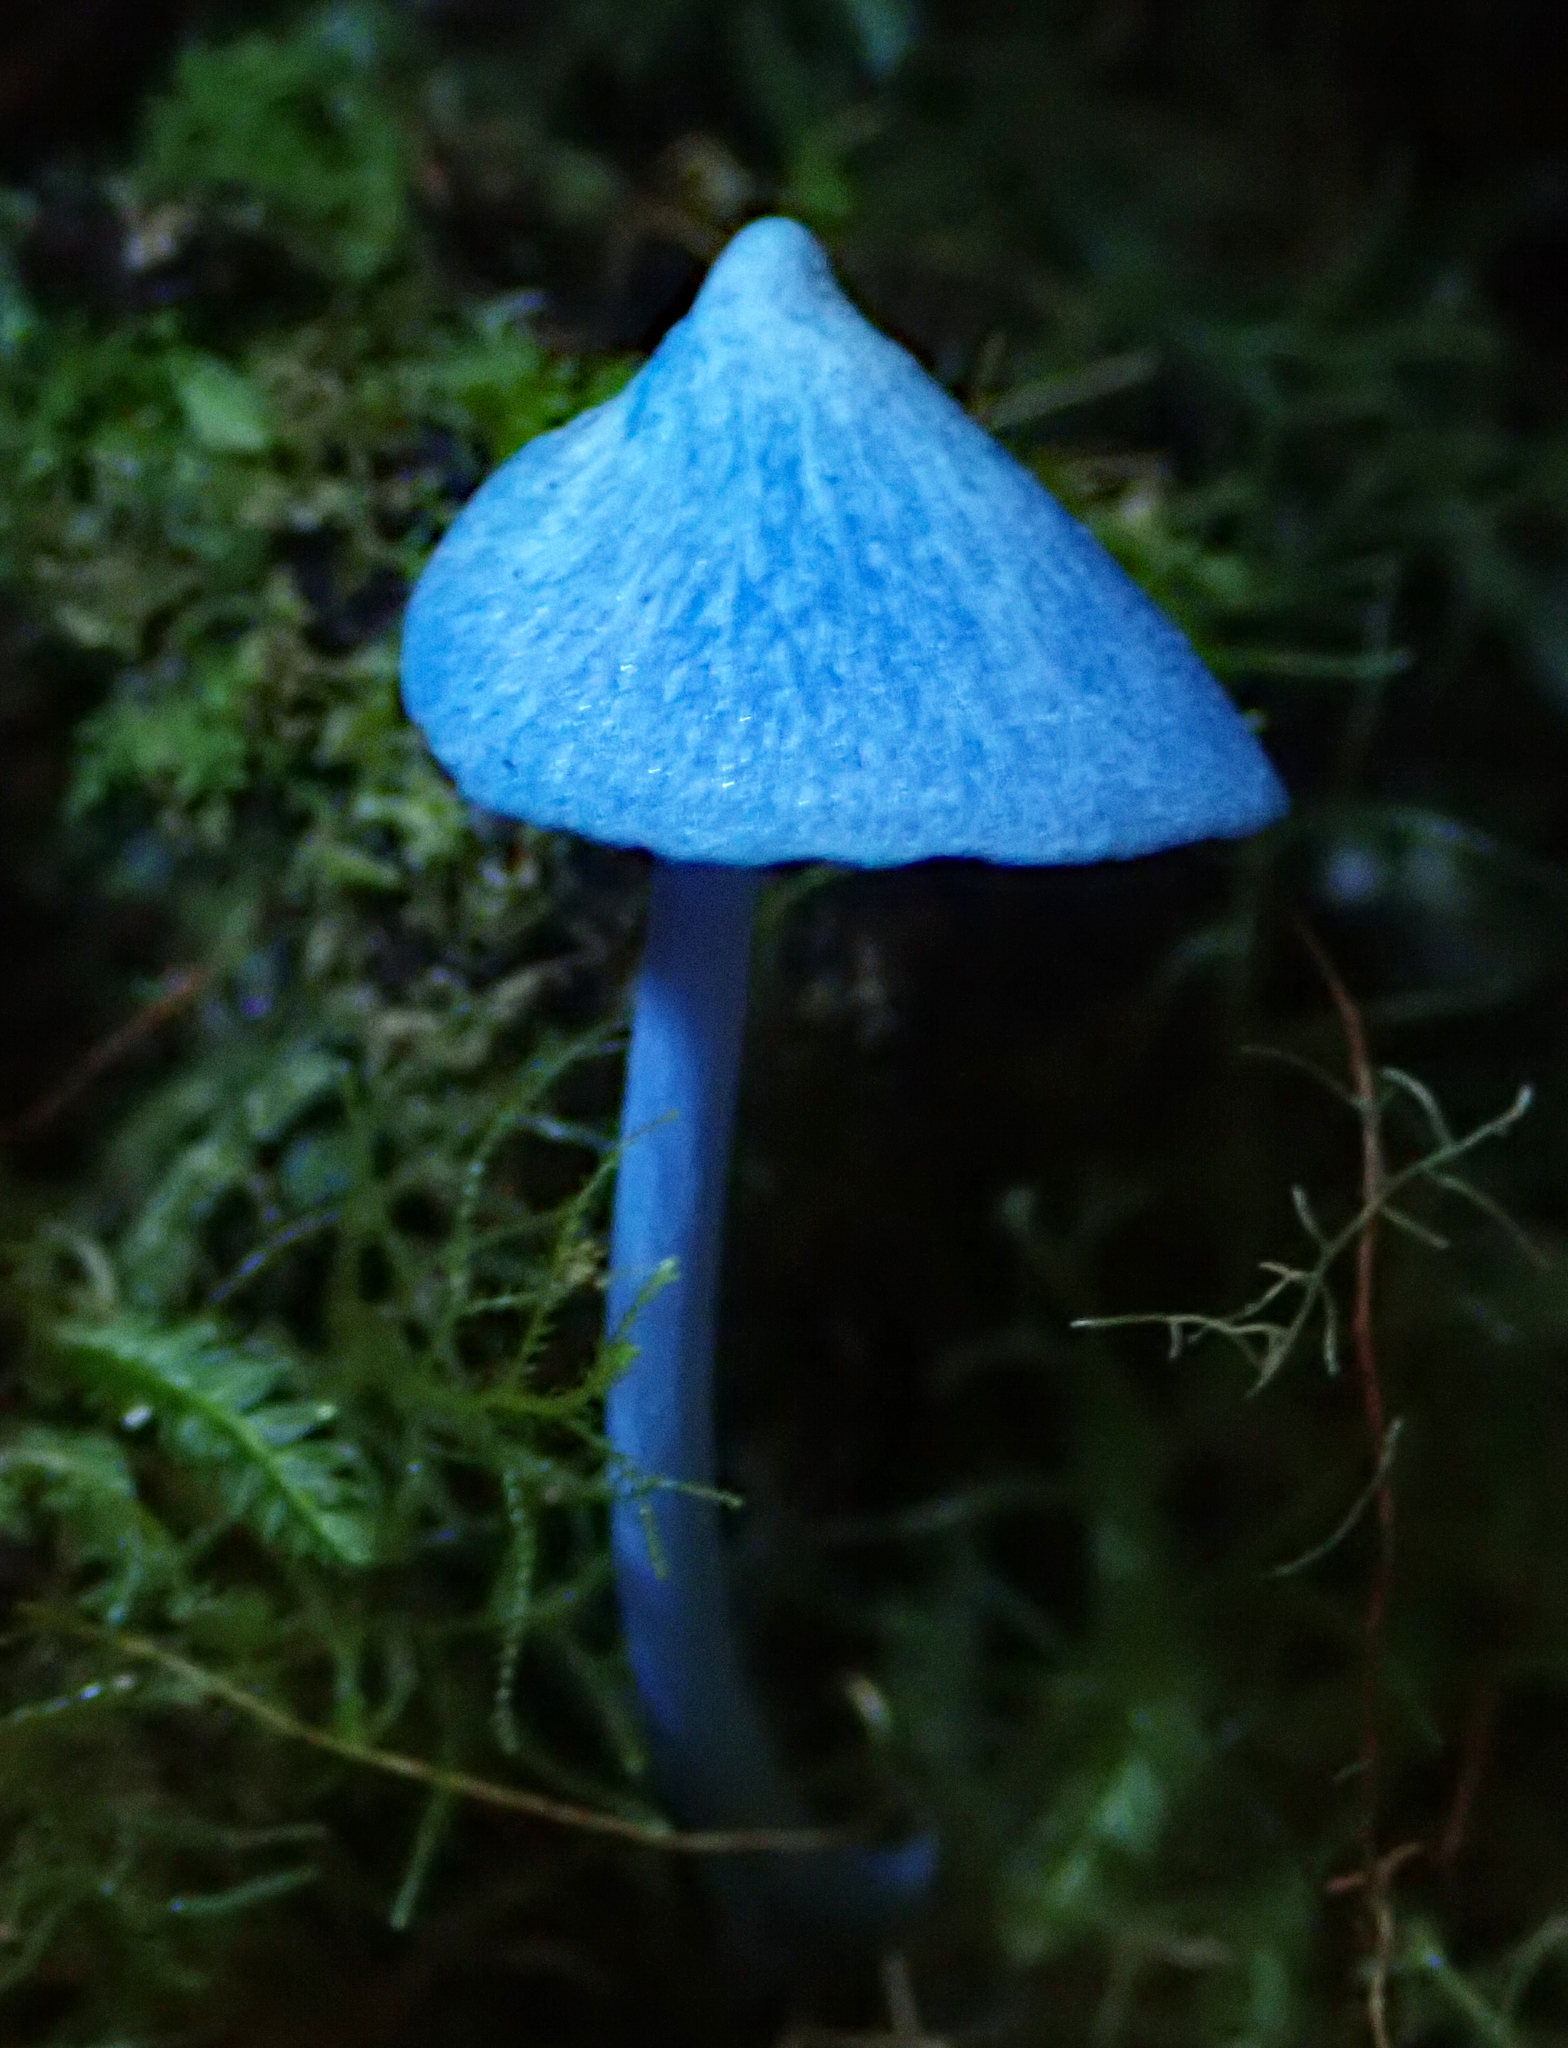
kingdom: Fungi
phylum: Basidiomycota
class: Agaricomycetes
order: Agaricales
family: Entolomataceae
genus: Entoloma
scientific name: Entoloma hochstetteri
